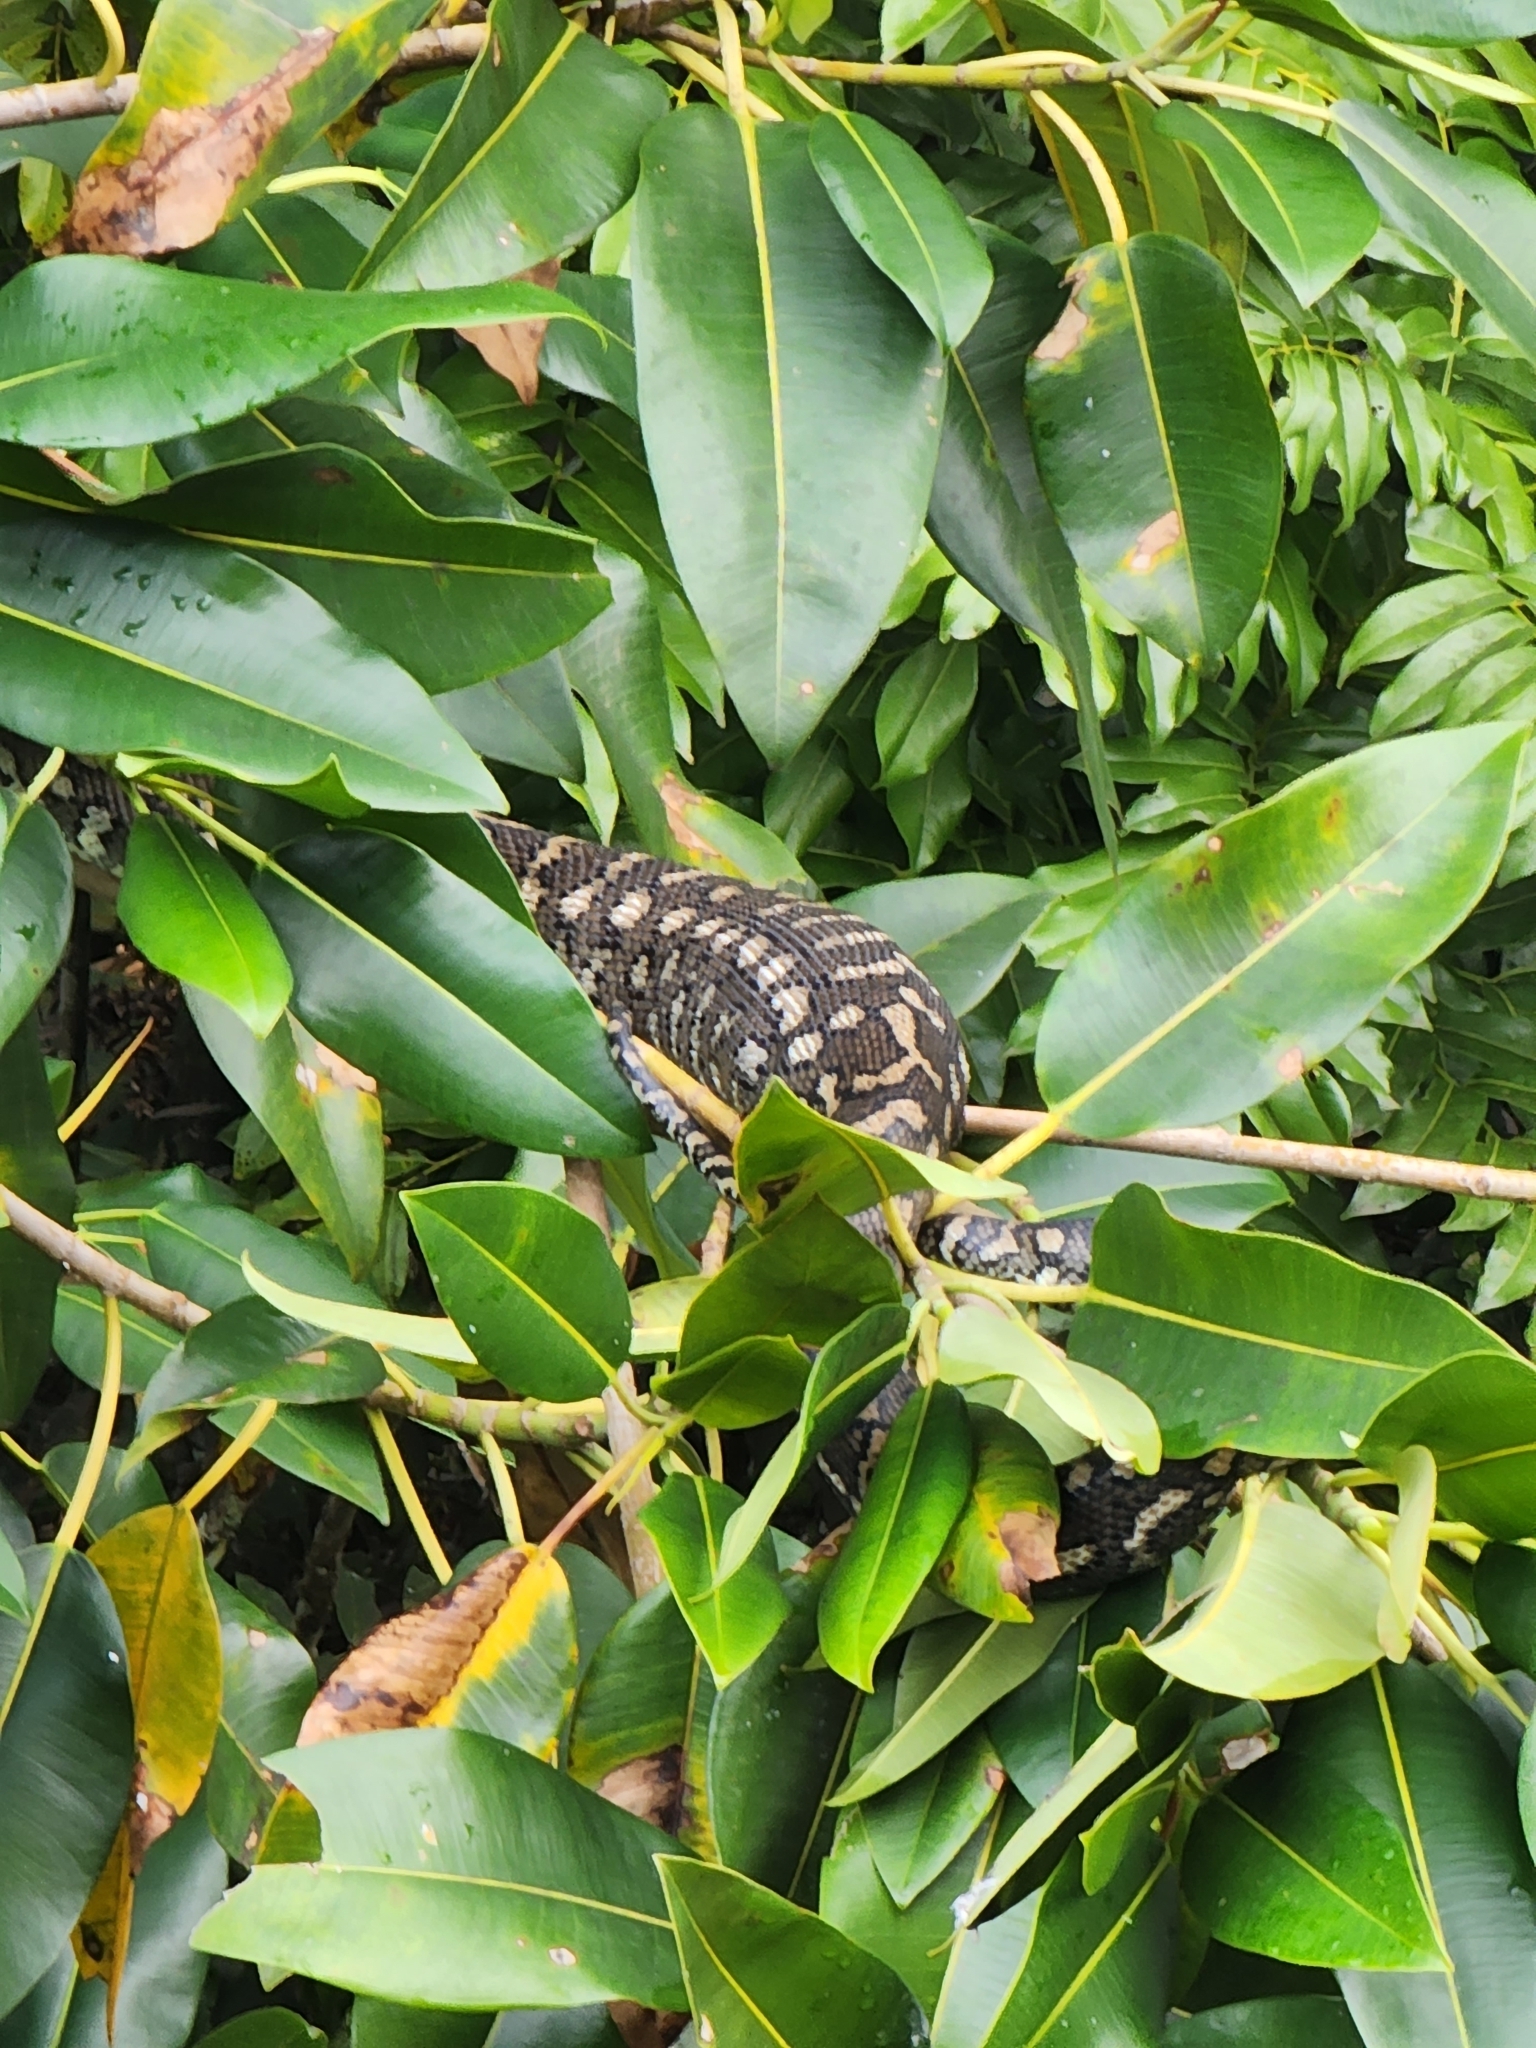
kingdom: Animalia
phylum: Chordata
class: Squamata
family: Pythonidae
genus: Morelia
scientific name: Morelia spilota
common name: Carpet python
